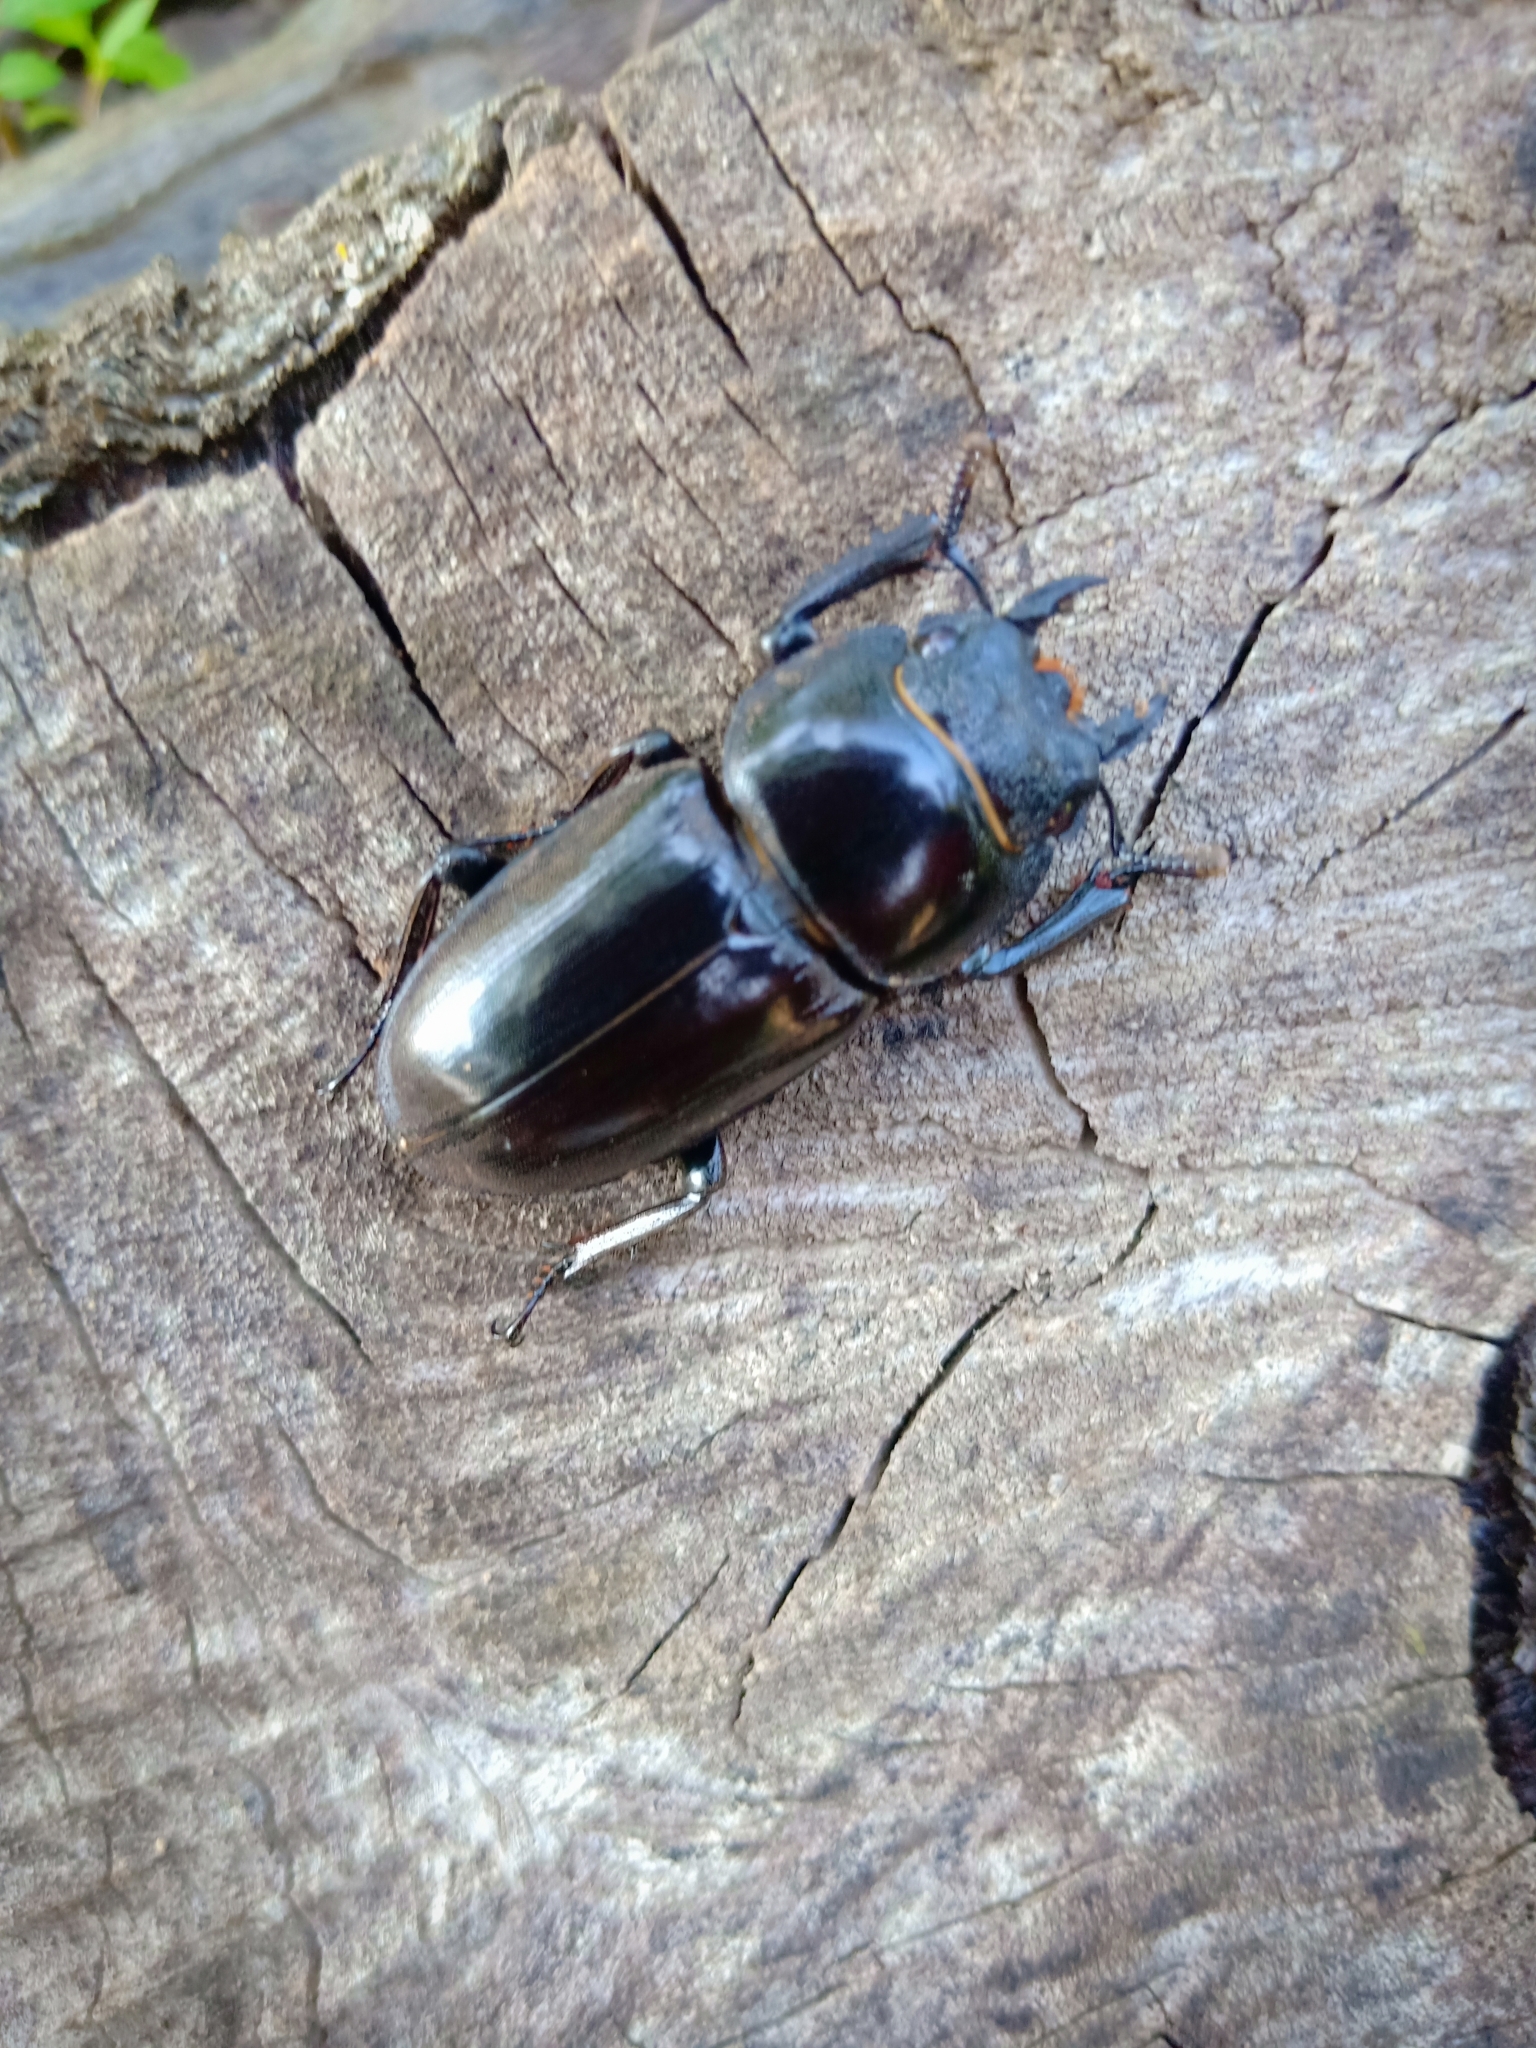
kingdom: Animalia
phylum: Arthropoda
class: Insecta
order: Coleoptera
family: Lucanidae
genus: Serrognathus
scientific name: Serrognathus titanus
